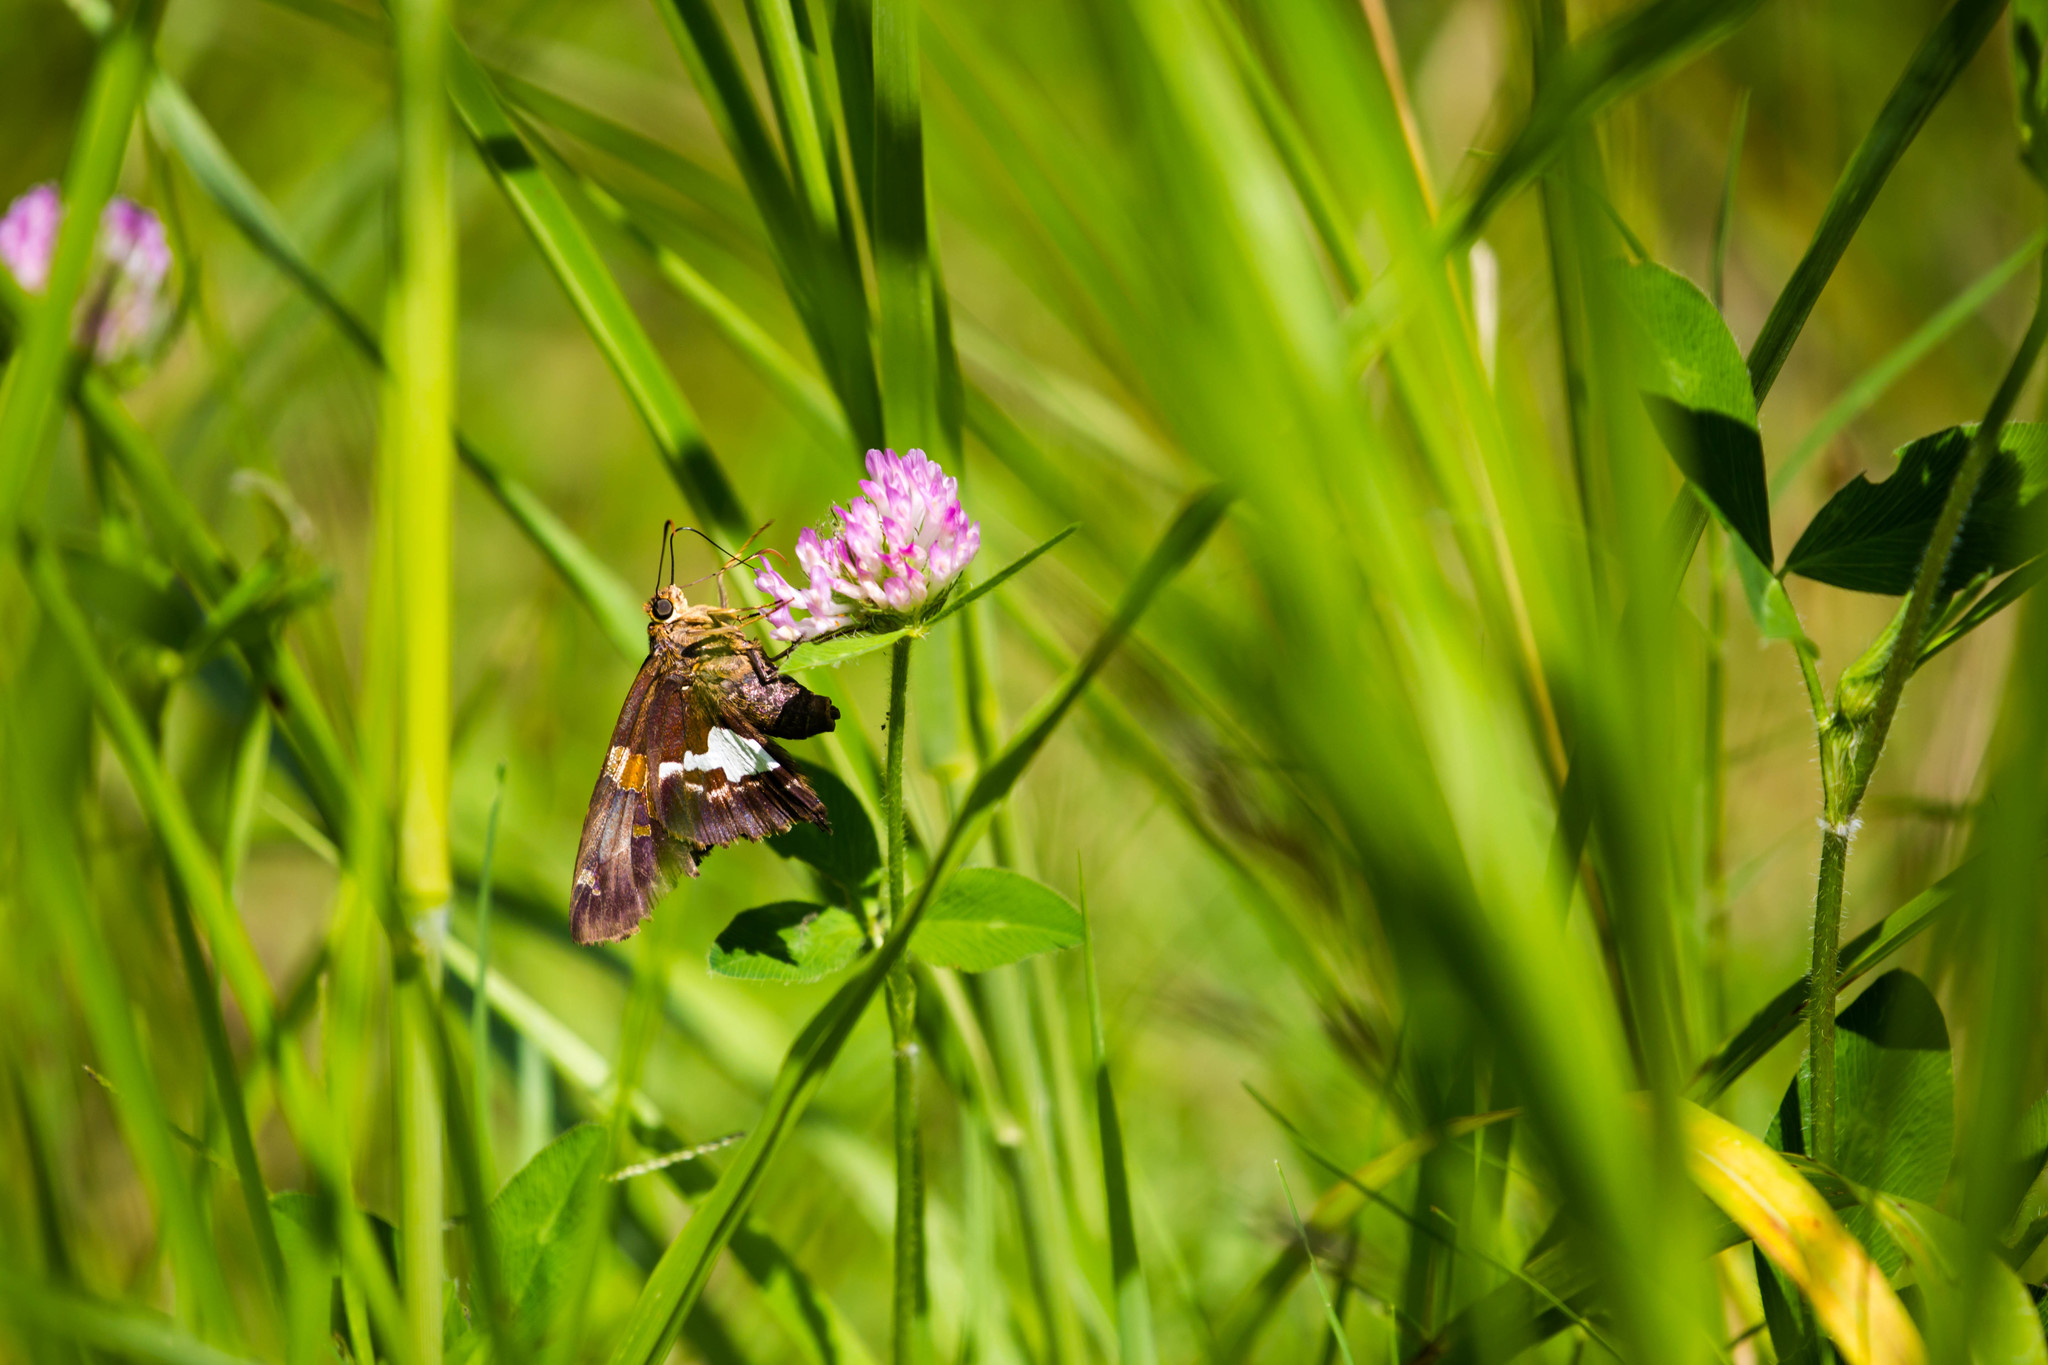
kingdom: Animalia
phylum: Arthropoda
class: Insecta
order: Lepidoptera
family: Hesperiidae
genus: Epargyreus
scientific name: Epargyreus clarus
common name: Silver-spotted skipper
